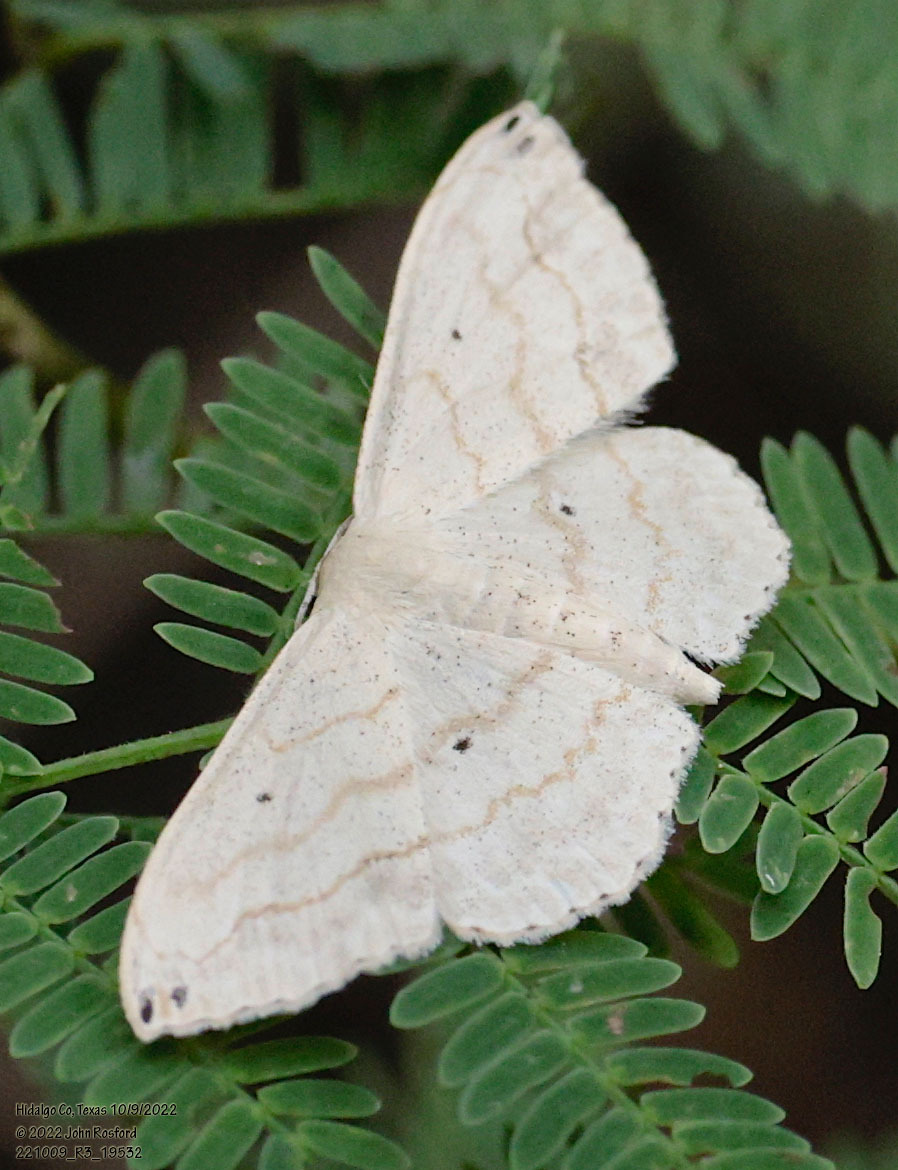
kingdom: Animalia
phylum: Arthropoda
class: Insecta
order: Lepidoptera
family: Geometridae
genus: Scopula
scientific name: Scopula umbilicata
